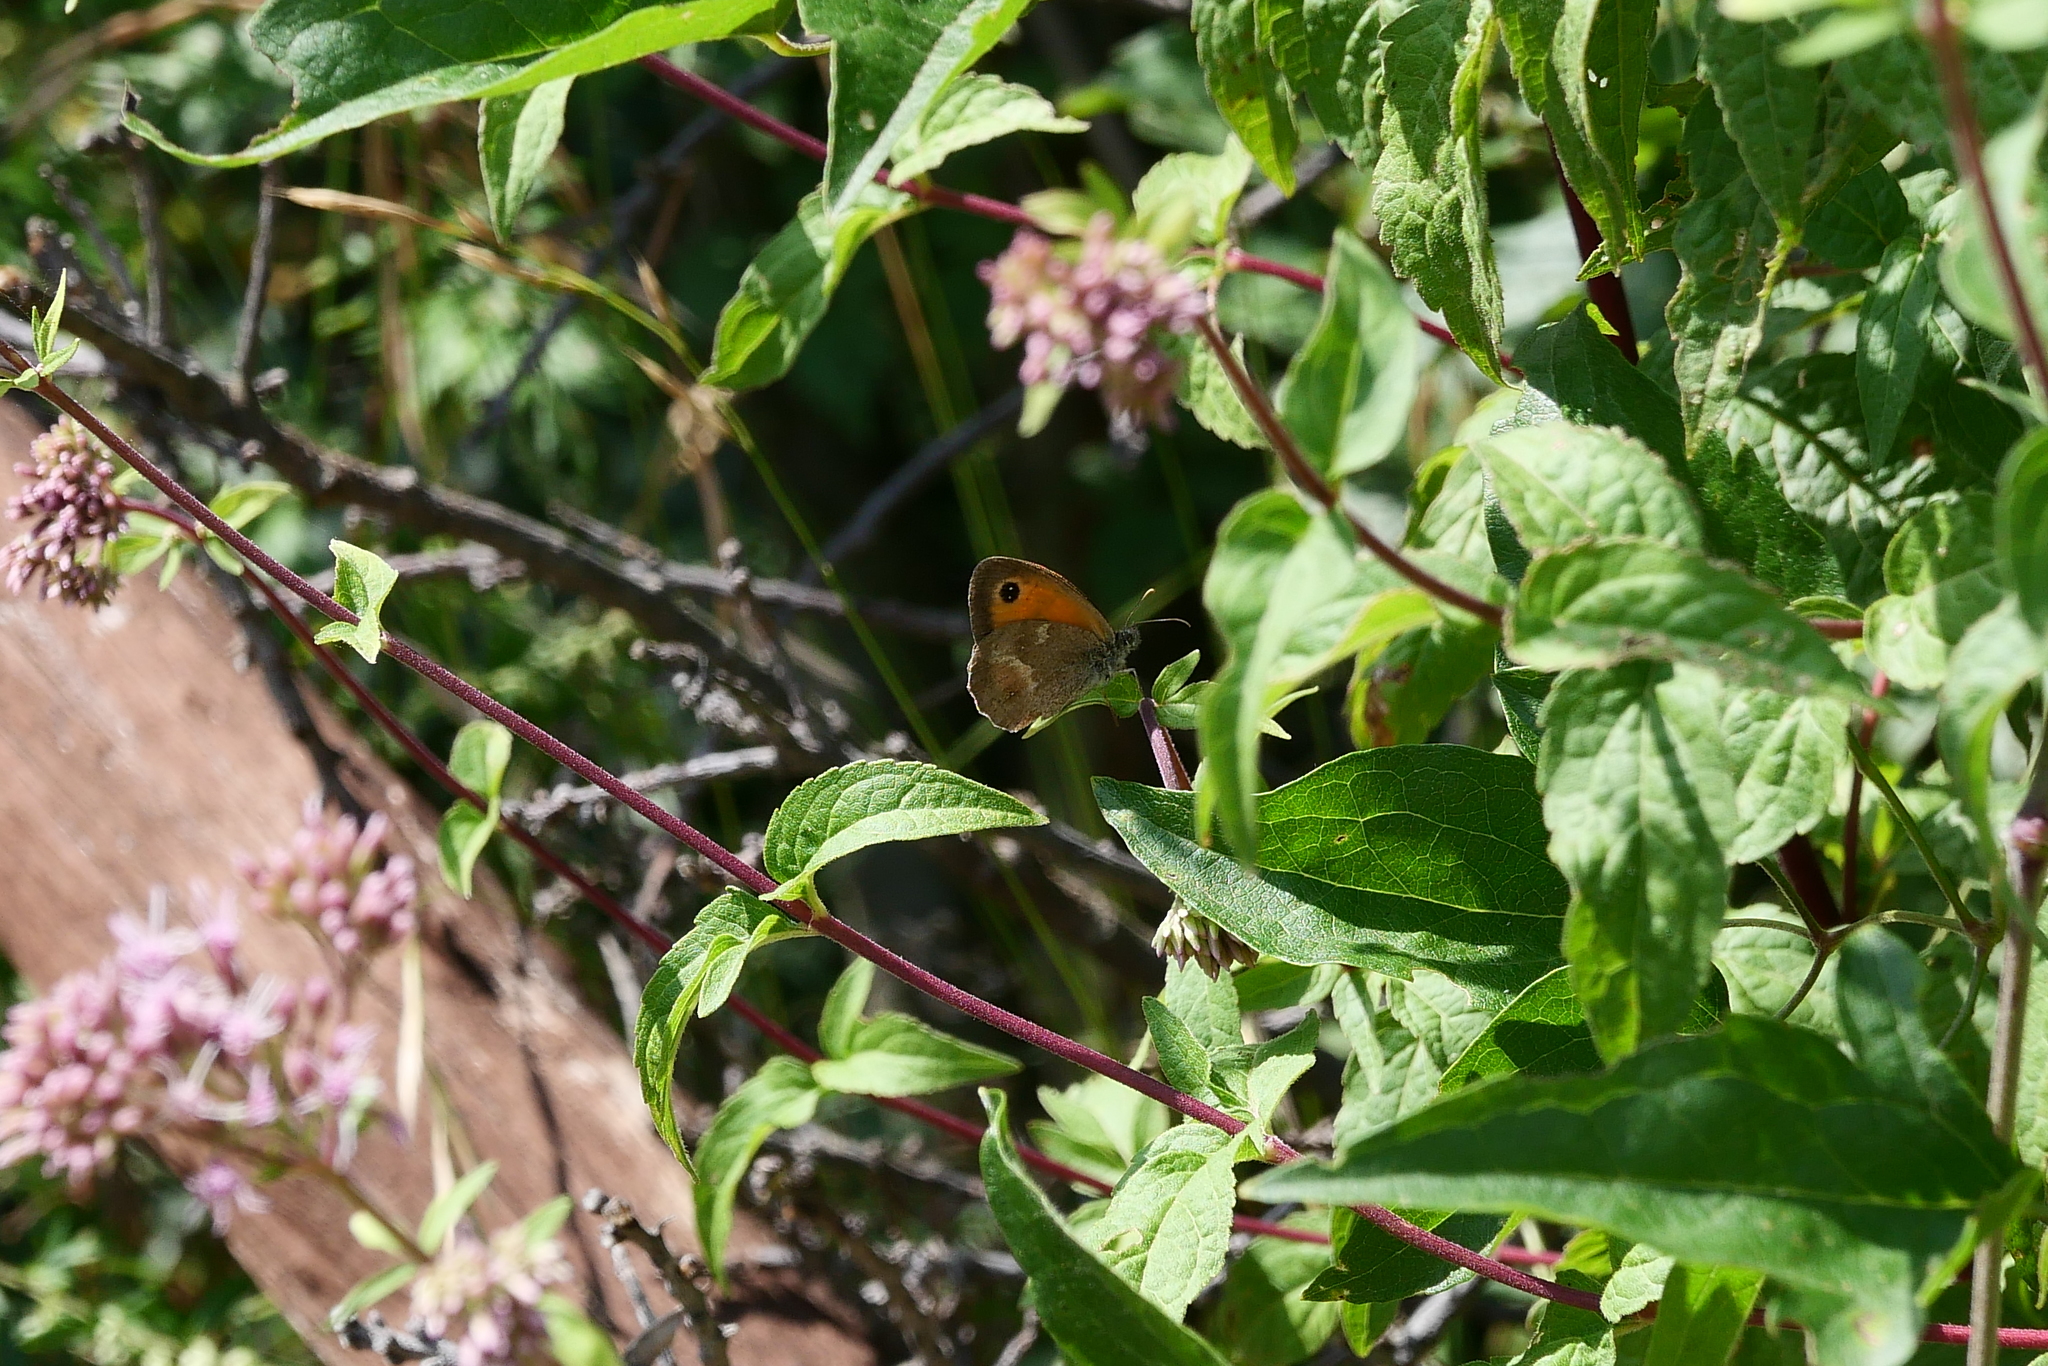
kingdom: Animalia
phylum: Arthropoda
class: Insecta
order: Lepidoptera
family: Nymphalidae
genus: Pyronia
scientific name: Pyronia tithonus
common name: Gatekeeper
